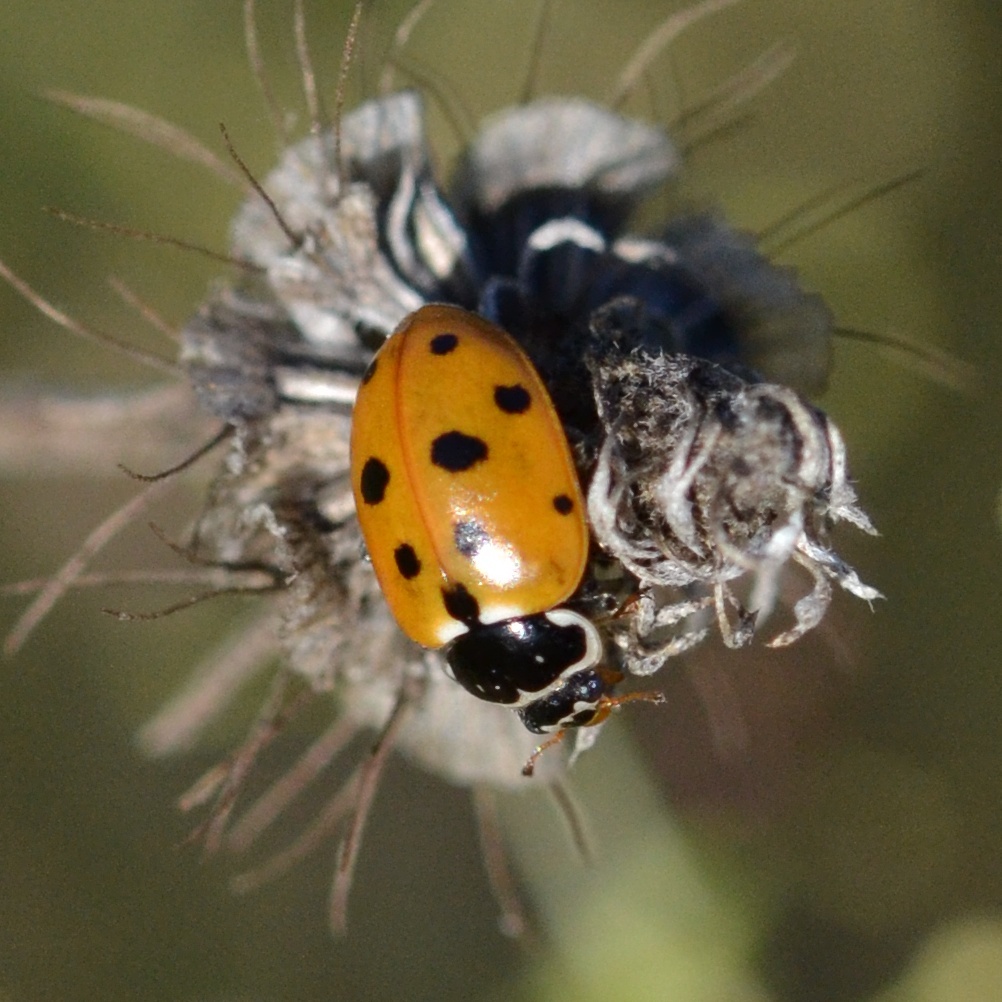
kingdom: Animalia
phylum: Arthropoda
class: Insecta
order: Coleoptera
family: Coccinellidae
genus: Hippodamia
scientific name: Hippodamia variegata
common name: Ladybird beetle
